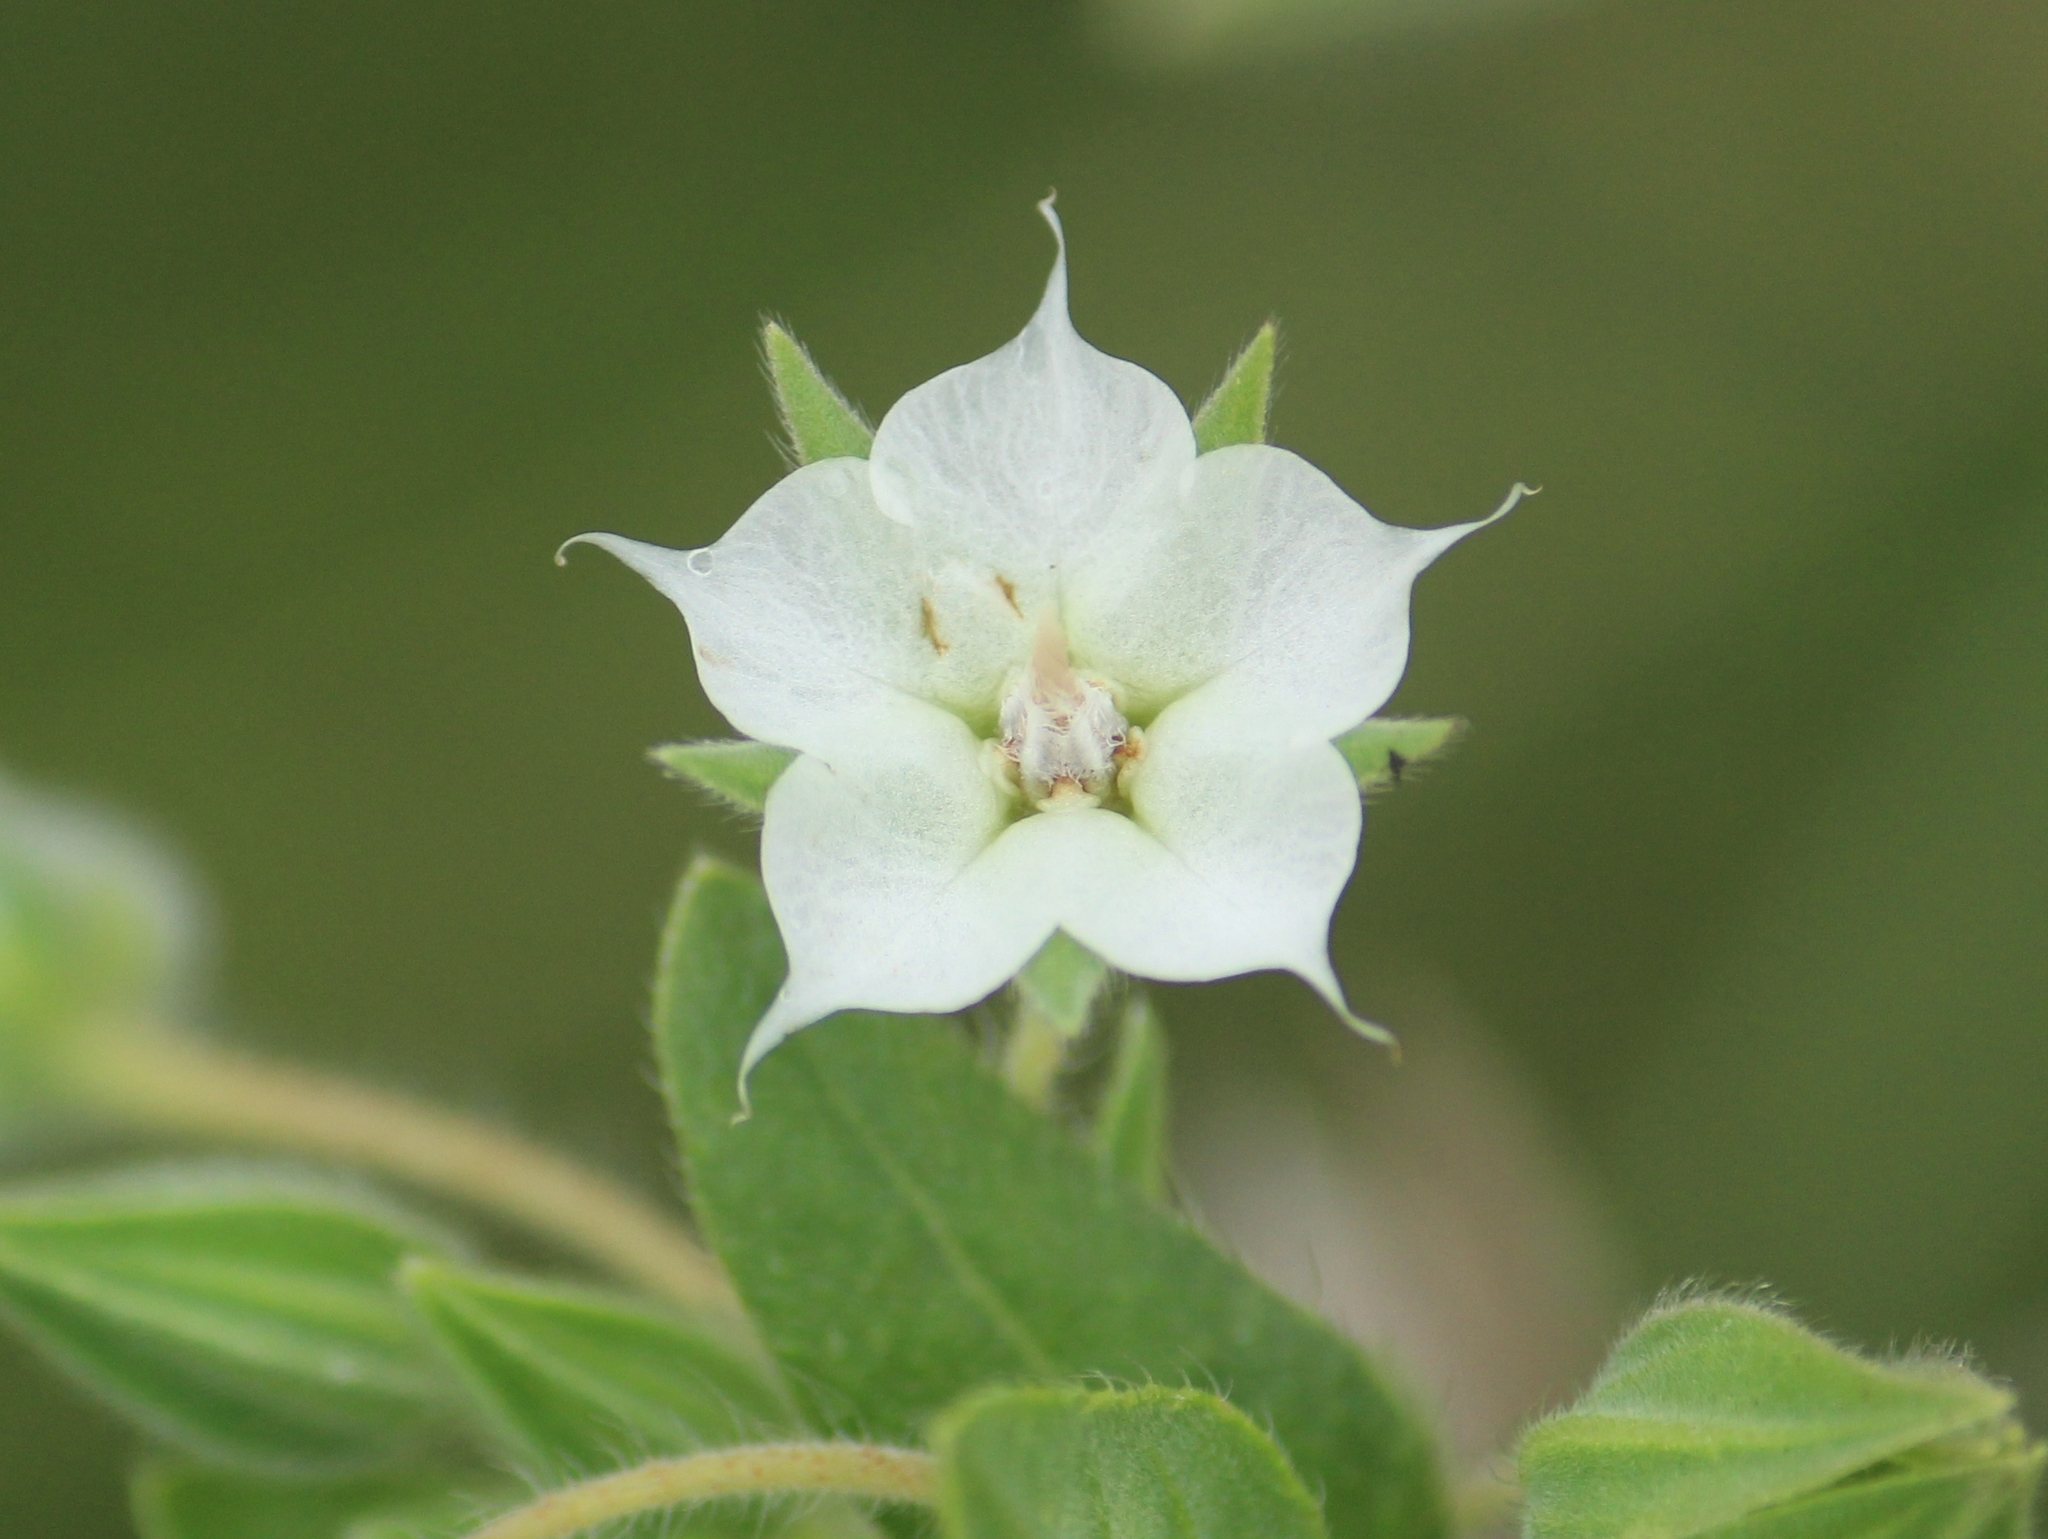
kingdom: Plantae
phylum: Tracheophyta
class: Magnoliopsida
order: Boraginales
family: Boraginaceae
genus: Trichodesma
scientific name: Trichodesma indicum
